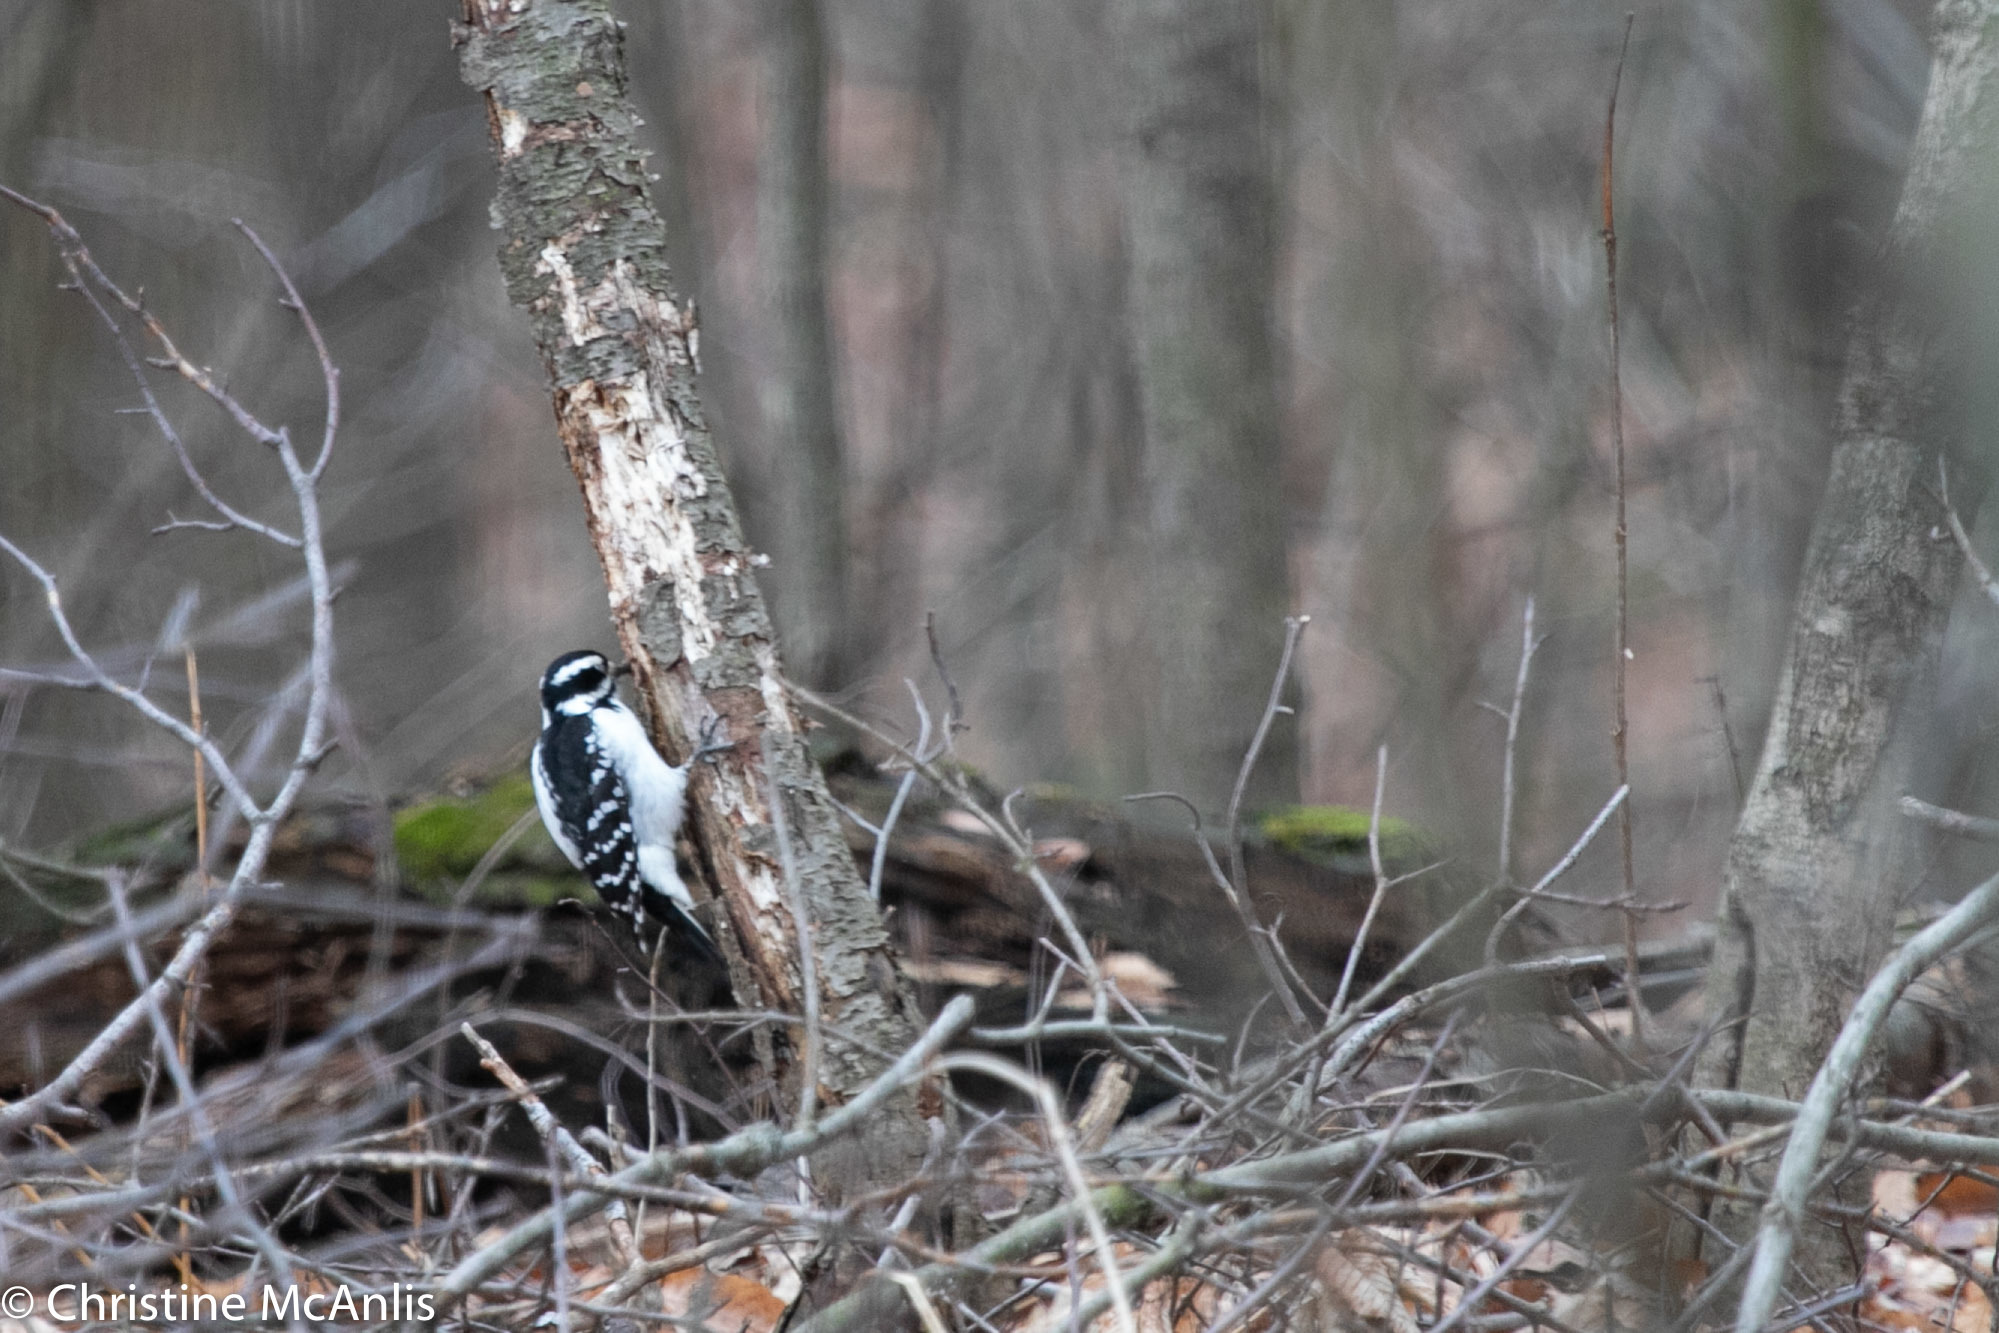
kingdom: Animalia
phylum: Chordata
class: Aves
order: Piciformes
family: Picidae
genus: Leuconotopicus
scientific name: Leuconotopicus villosus
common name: Hairy woodpecker
